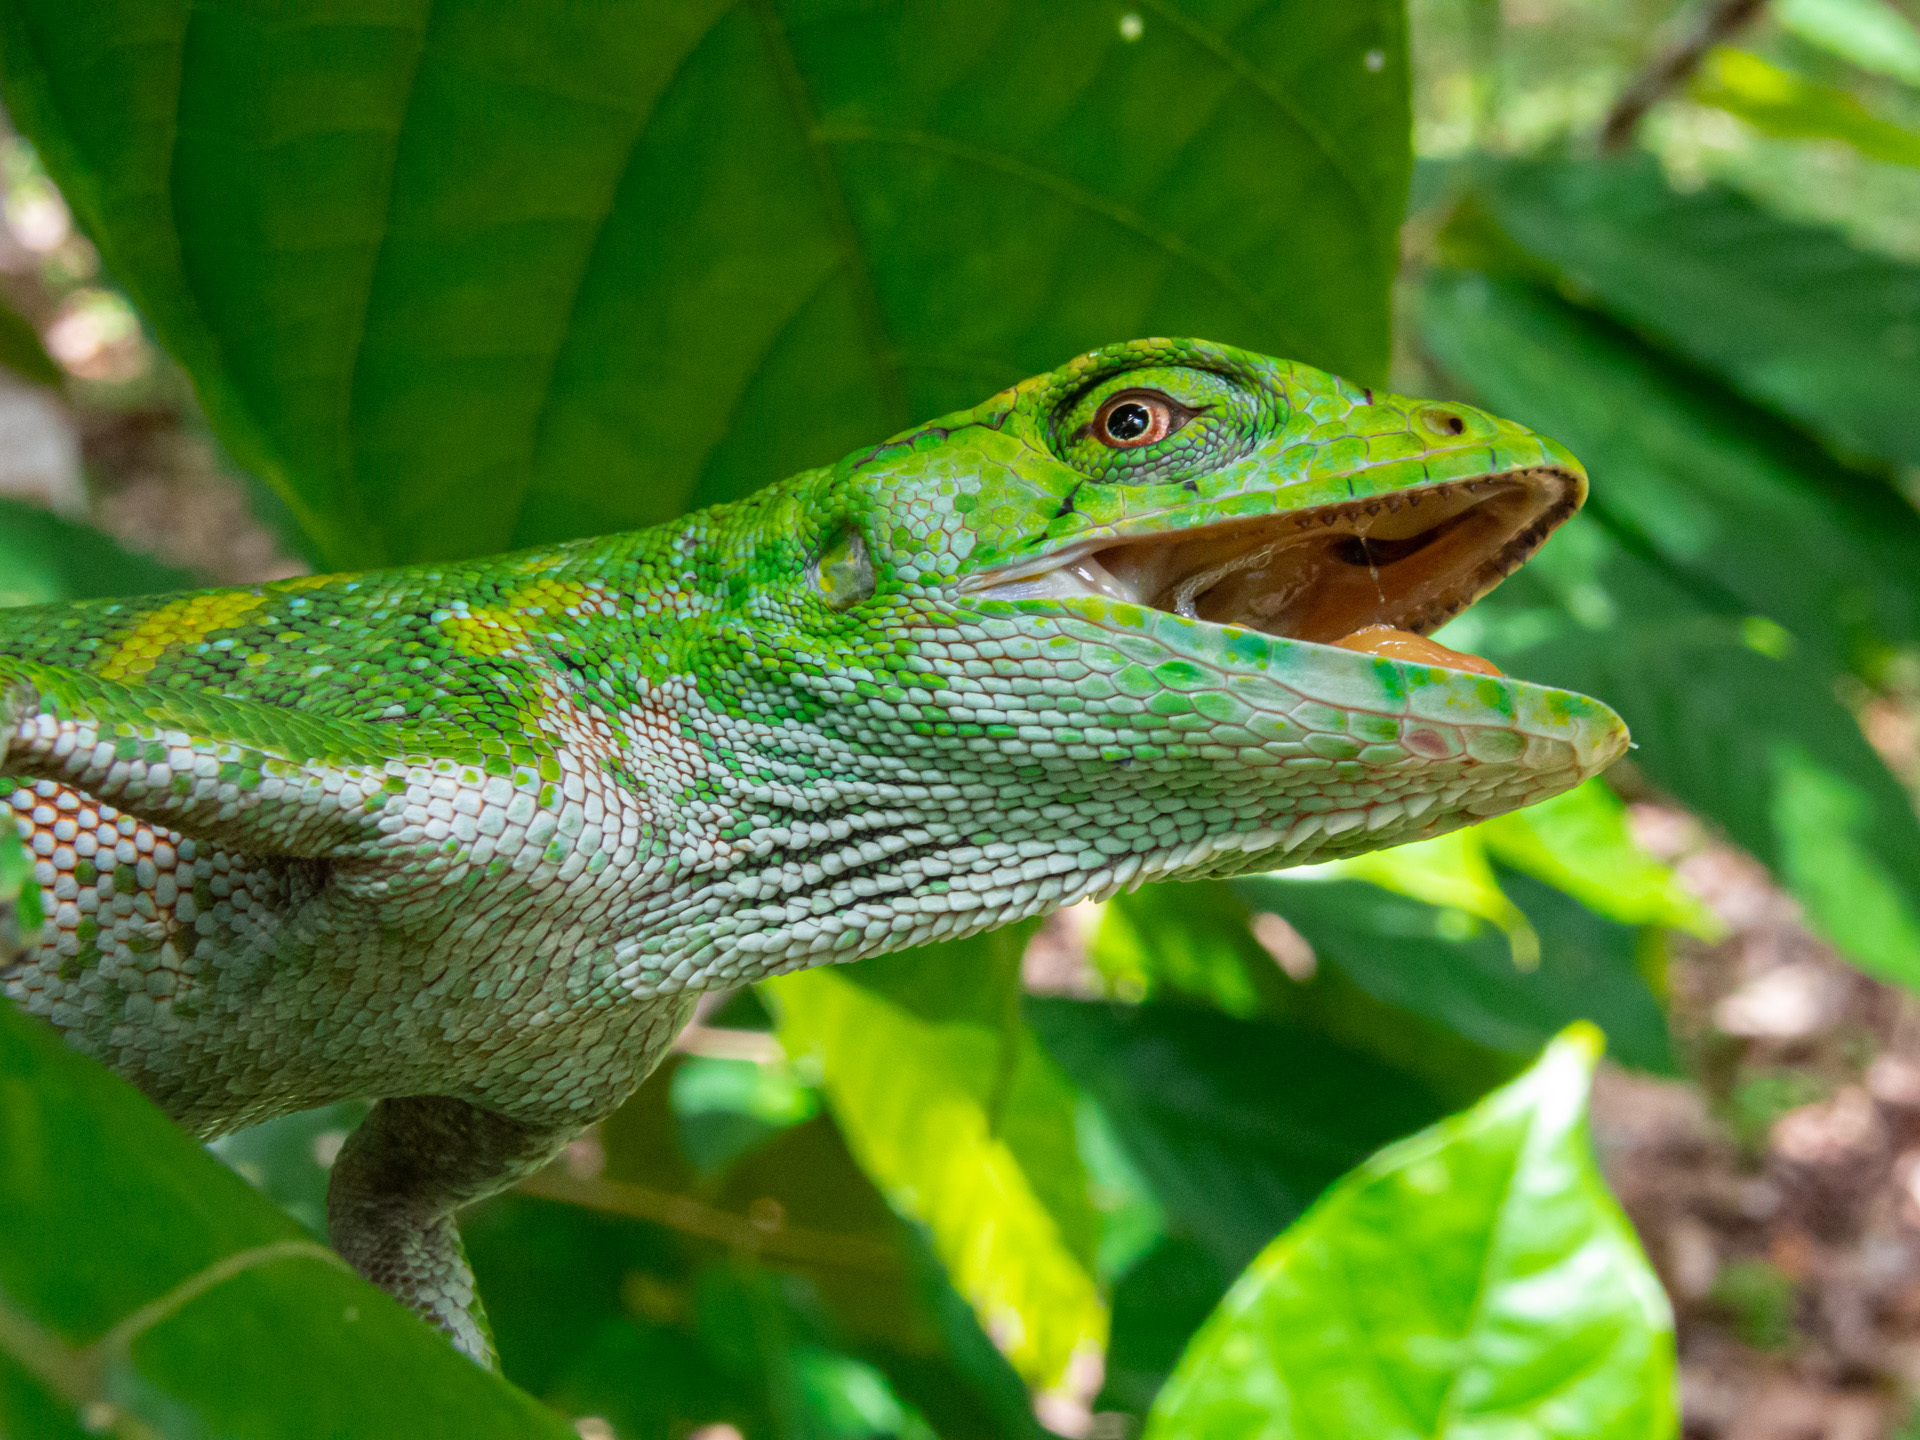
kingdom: Animalia
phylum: Chordata
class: Squamata
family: Polychrotidae
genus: Polychrus
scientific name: Polychrus marmoratus
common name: Many-colored bush anole
